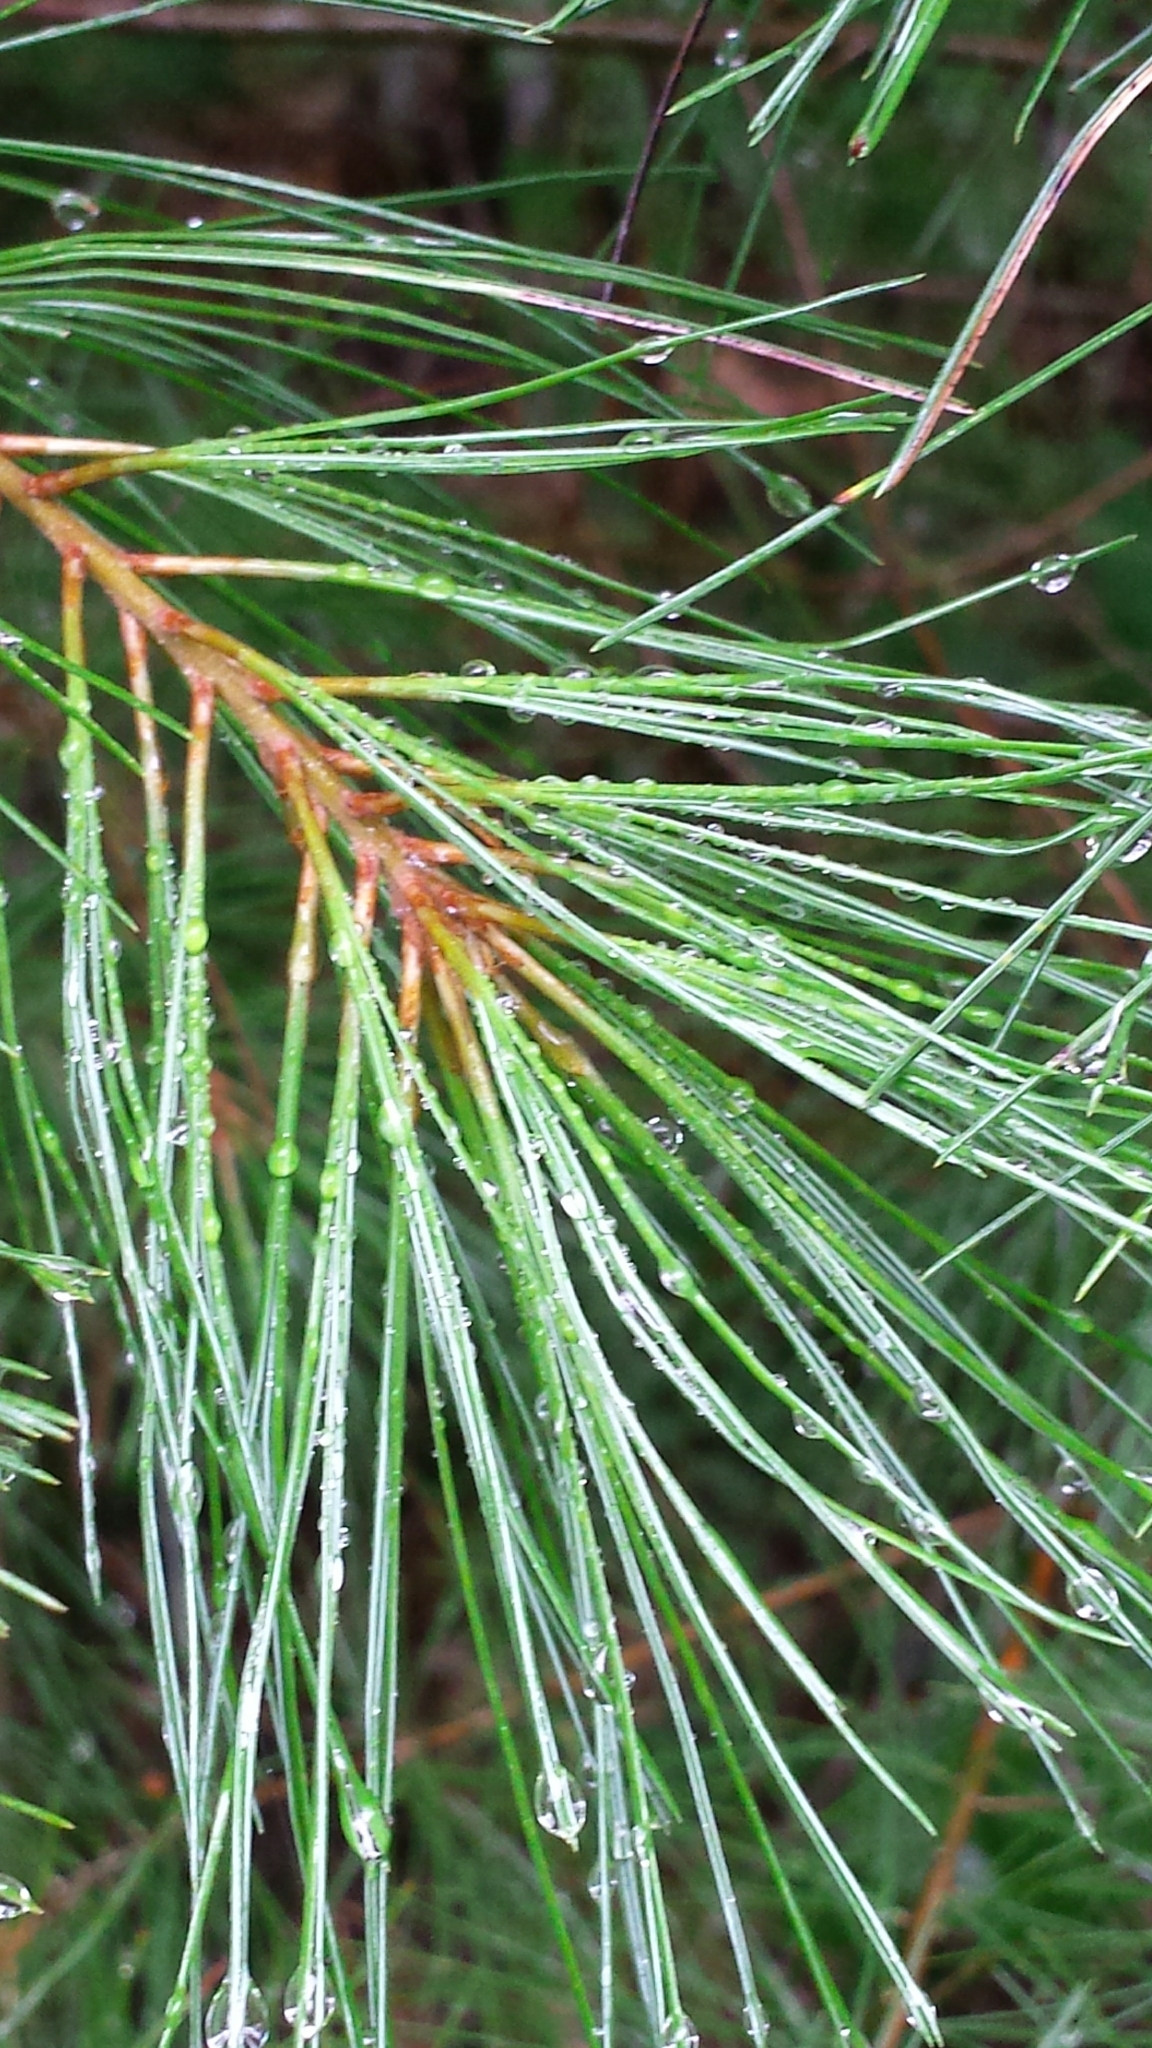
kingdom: Plantae
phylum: Tracheophyta
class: Pinopsida
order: Pinales
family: Pinaceae
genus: Pinus
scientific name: Pinus strobus
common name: Weymouth pine
